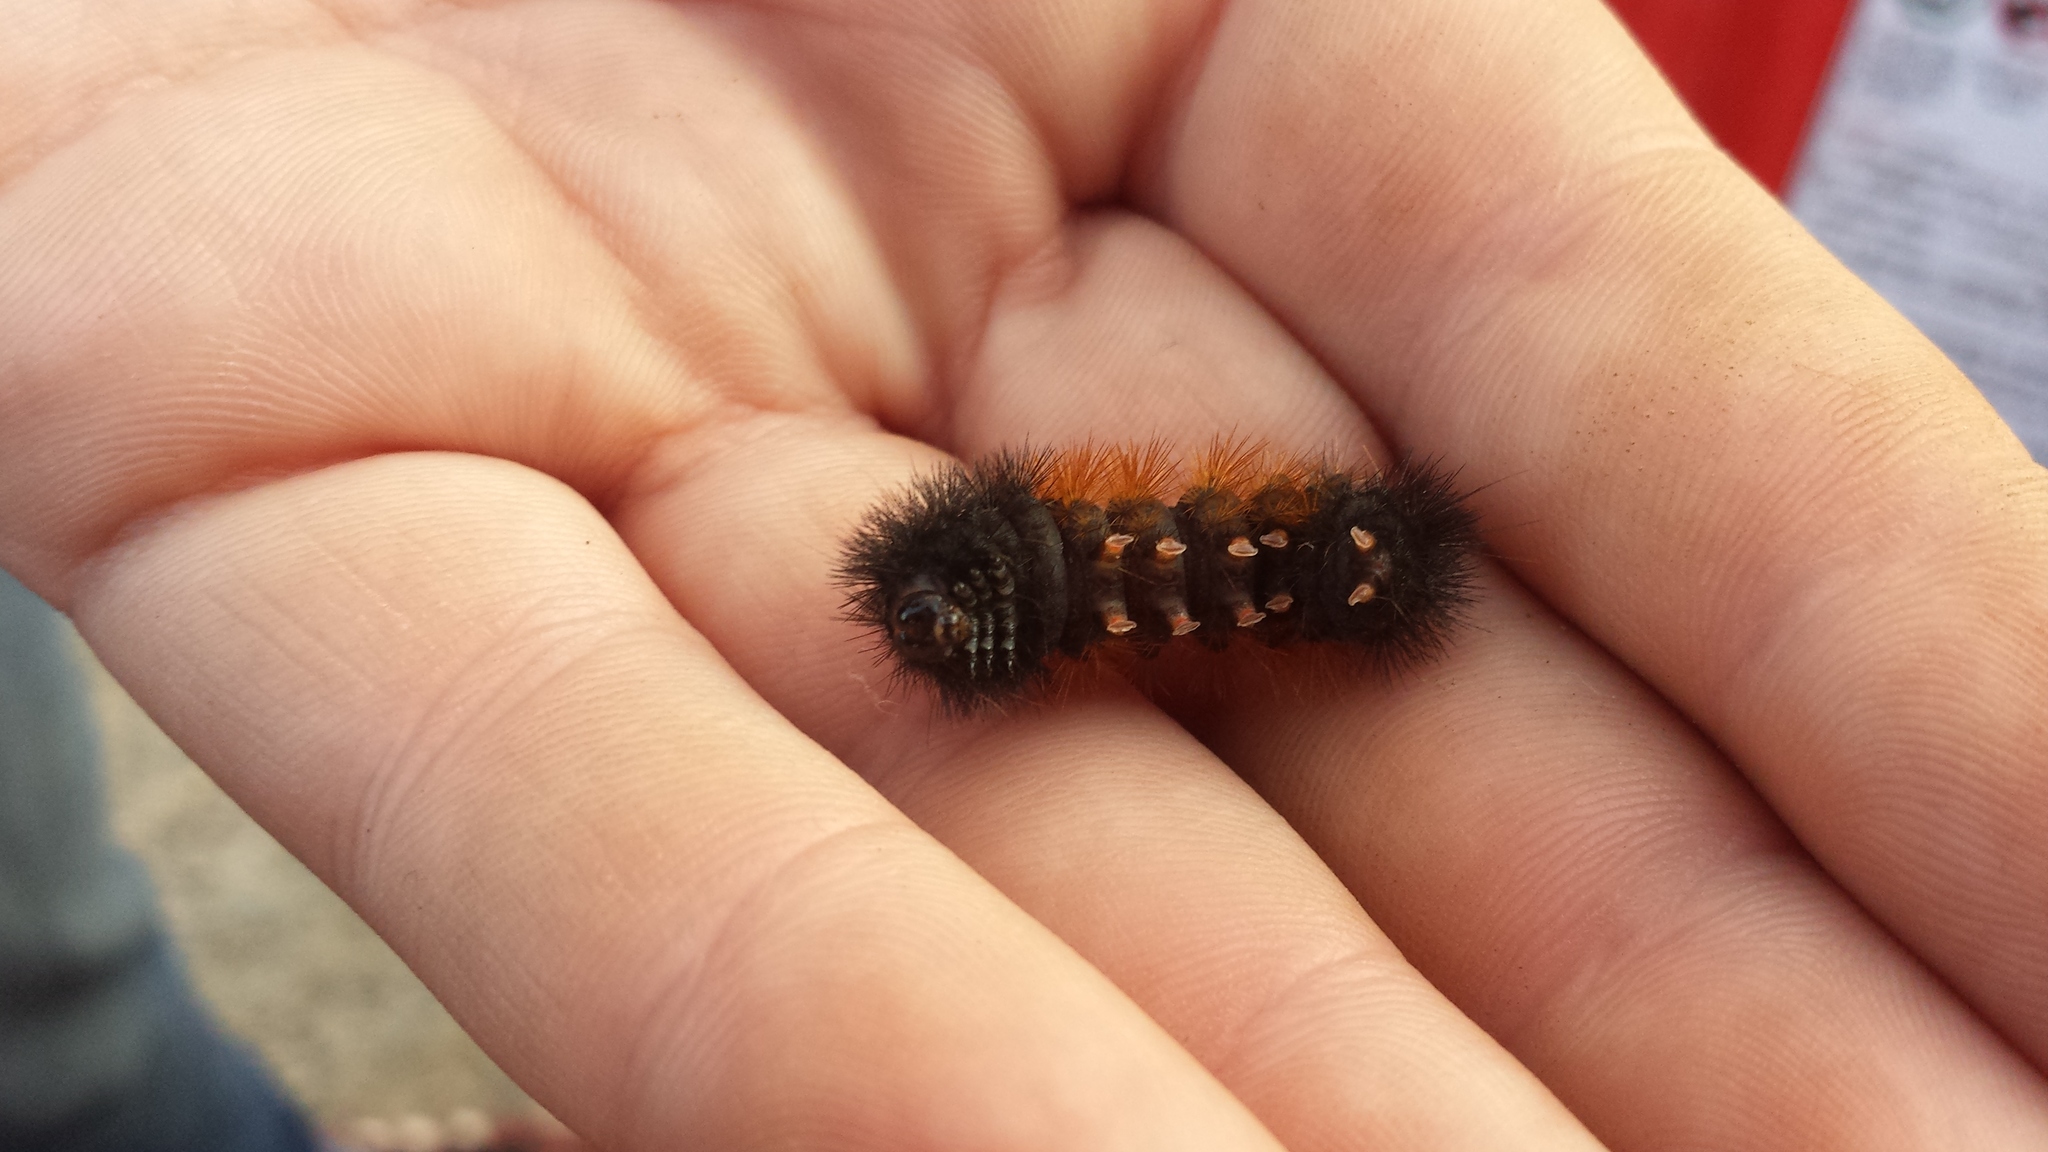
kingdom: Animalia
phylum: Arthropoda
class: Insecta
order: Lepidoptera
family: Erebidae
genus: Pyrrharctia
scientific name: Pyrrharctia isabella
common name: Isabella tiger moth
